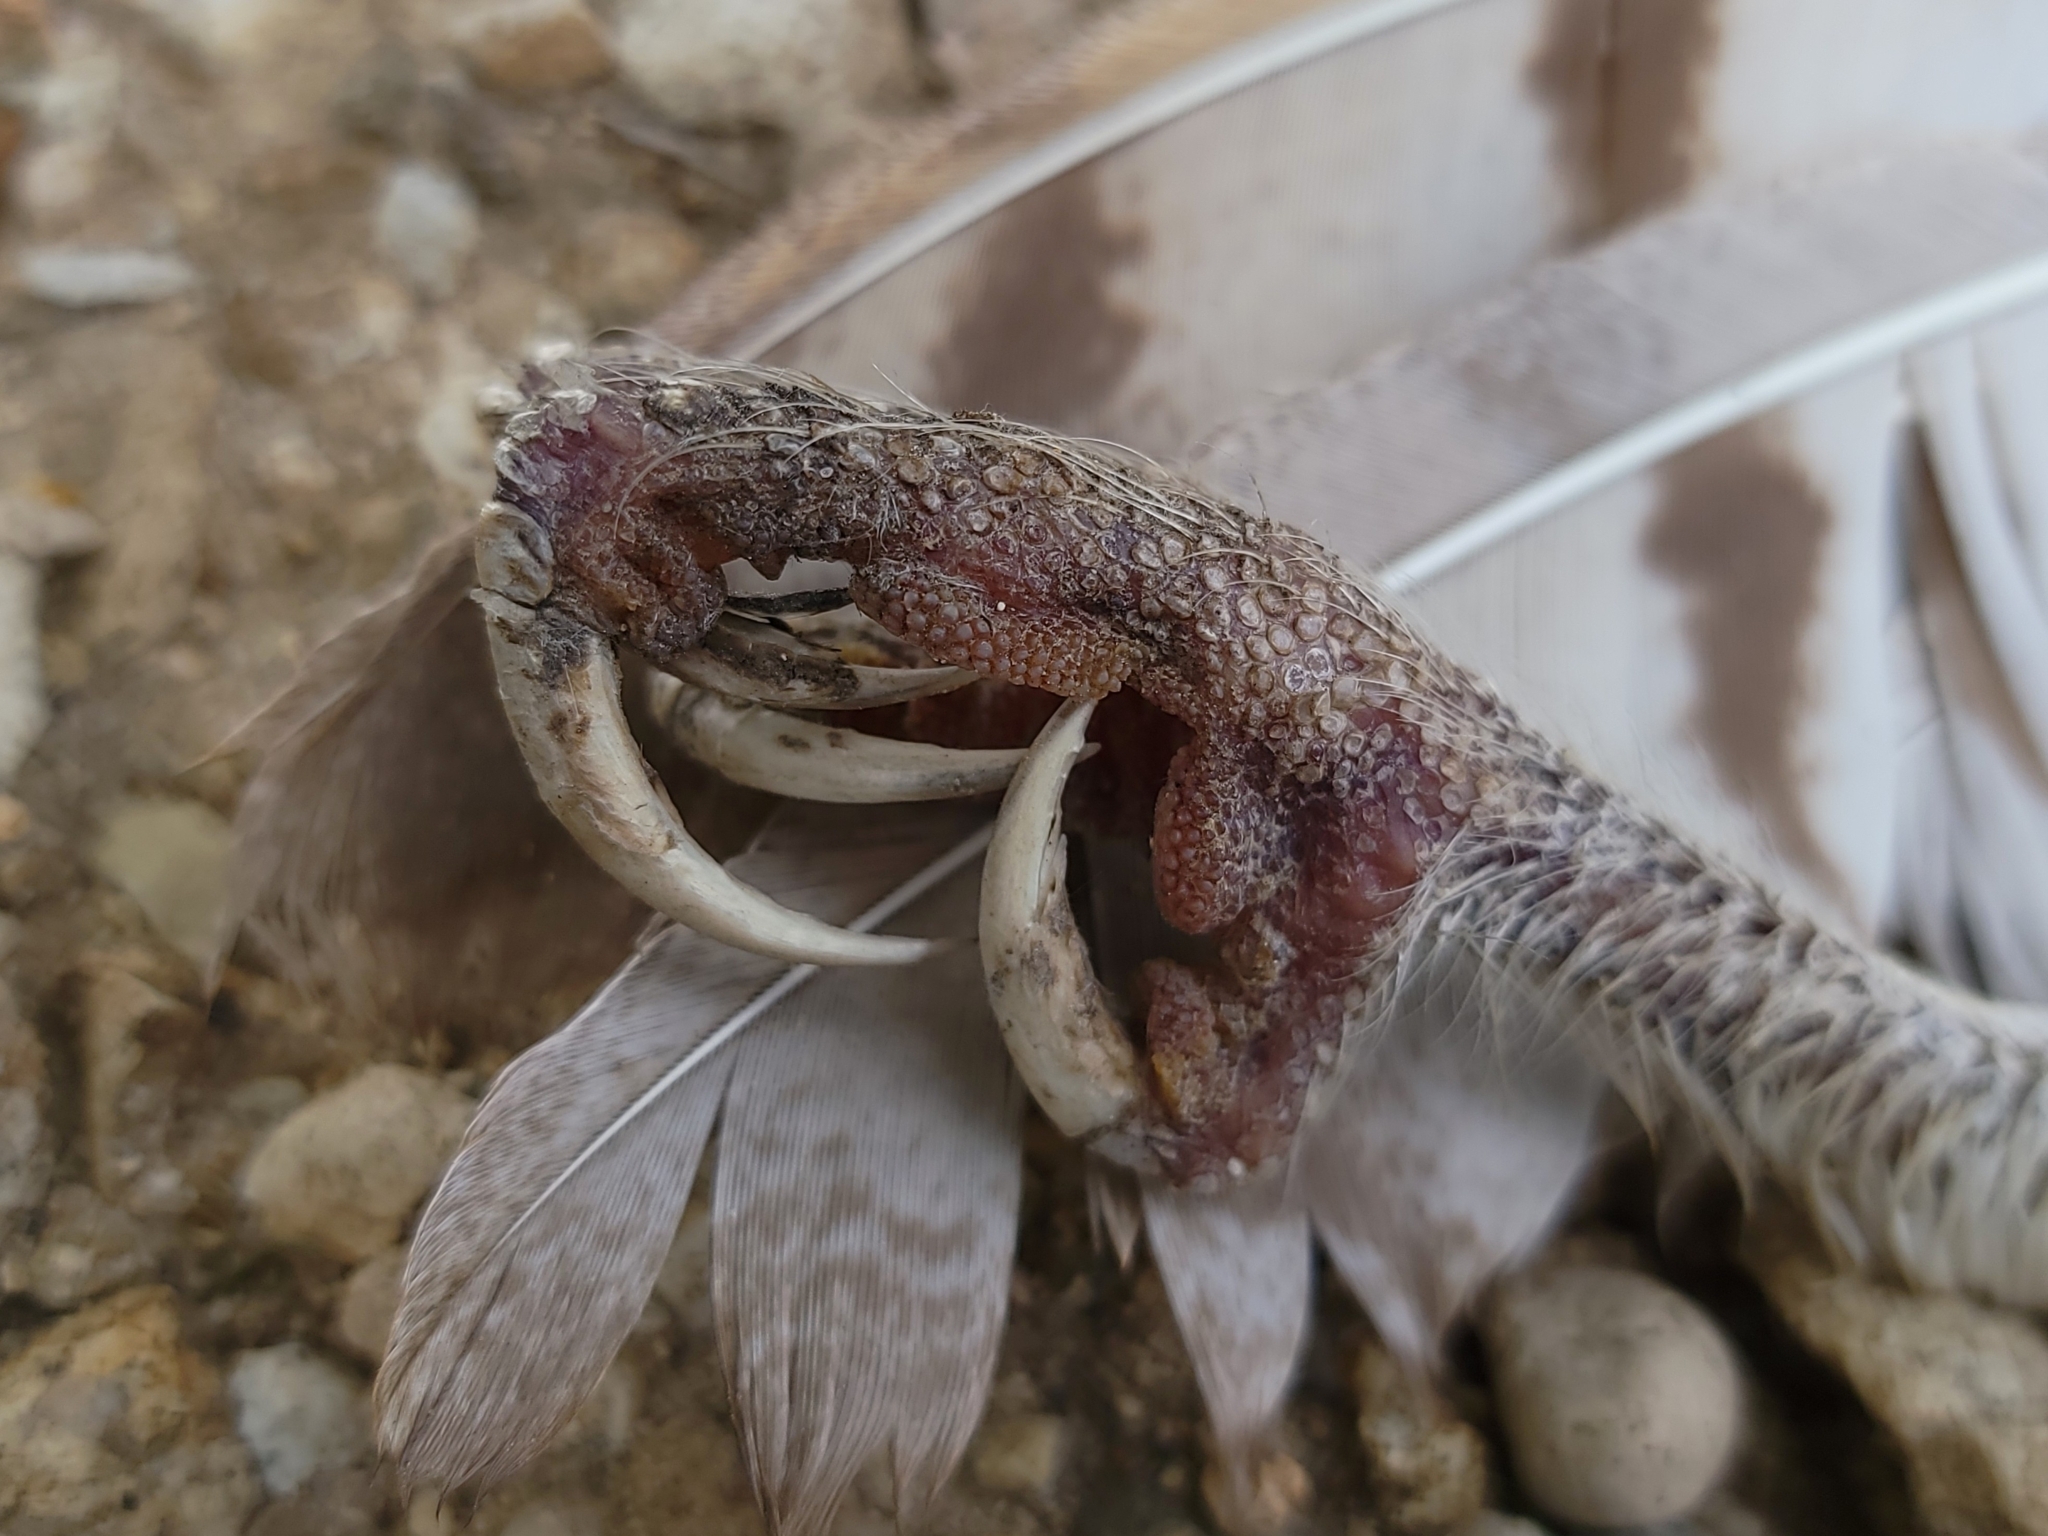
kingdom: Animalia
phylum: Chordata
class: Aves
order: Strigiformes
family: Tytonidae
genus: Tyto
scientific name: Tyto alba
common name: Barn owl
